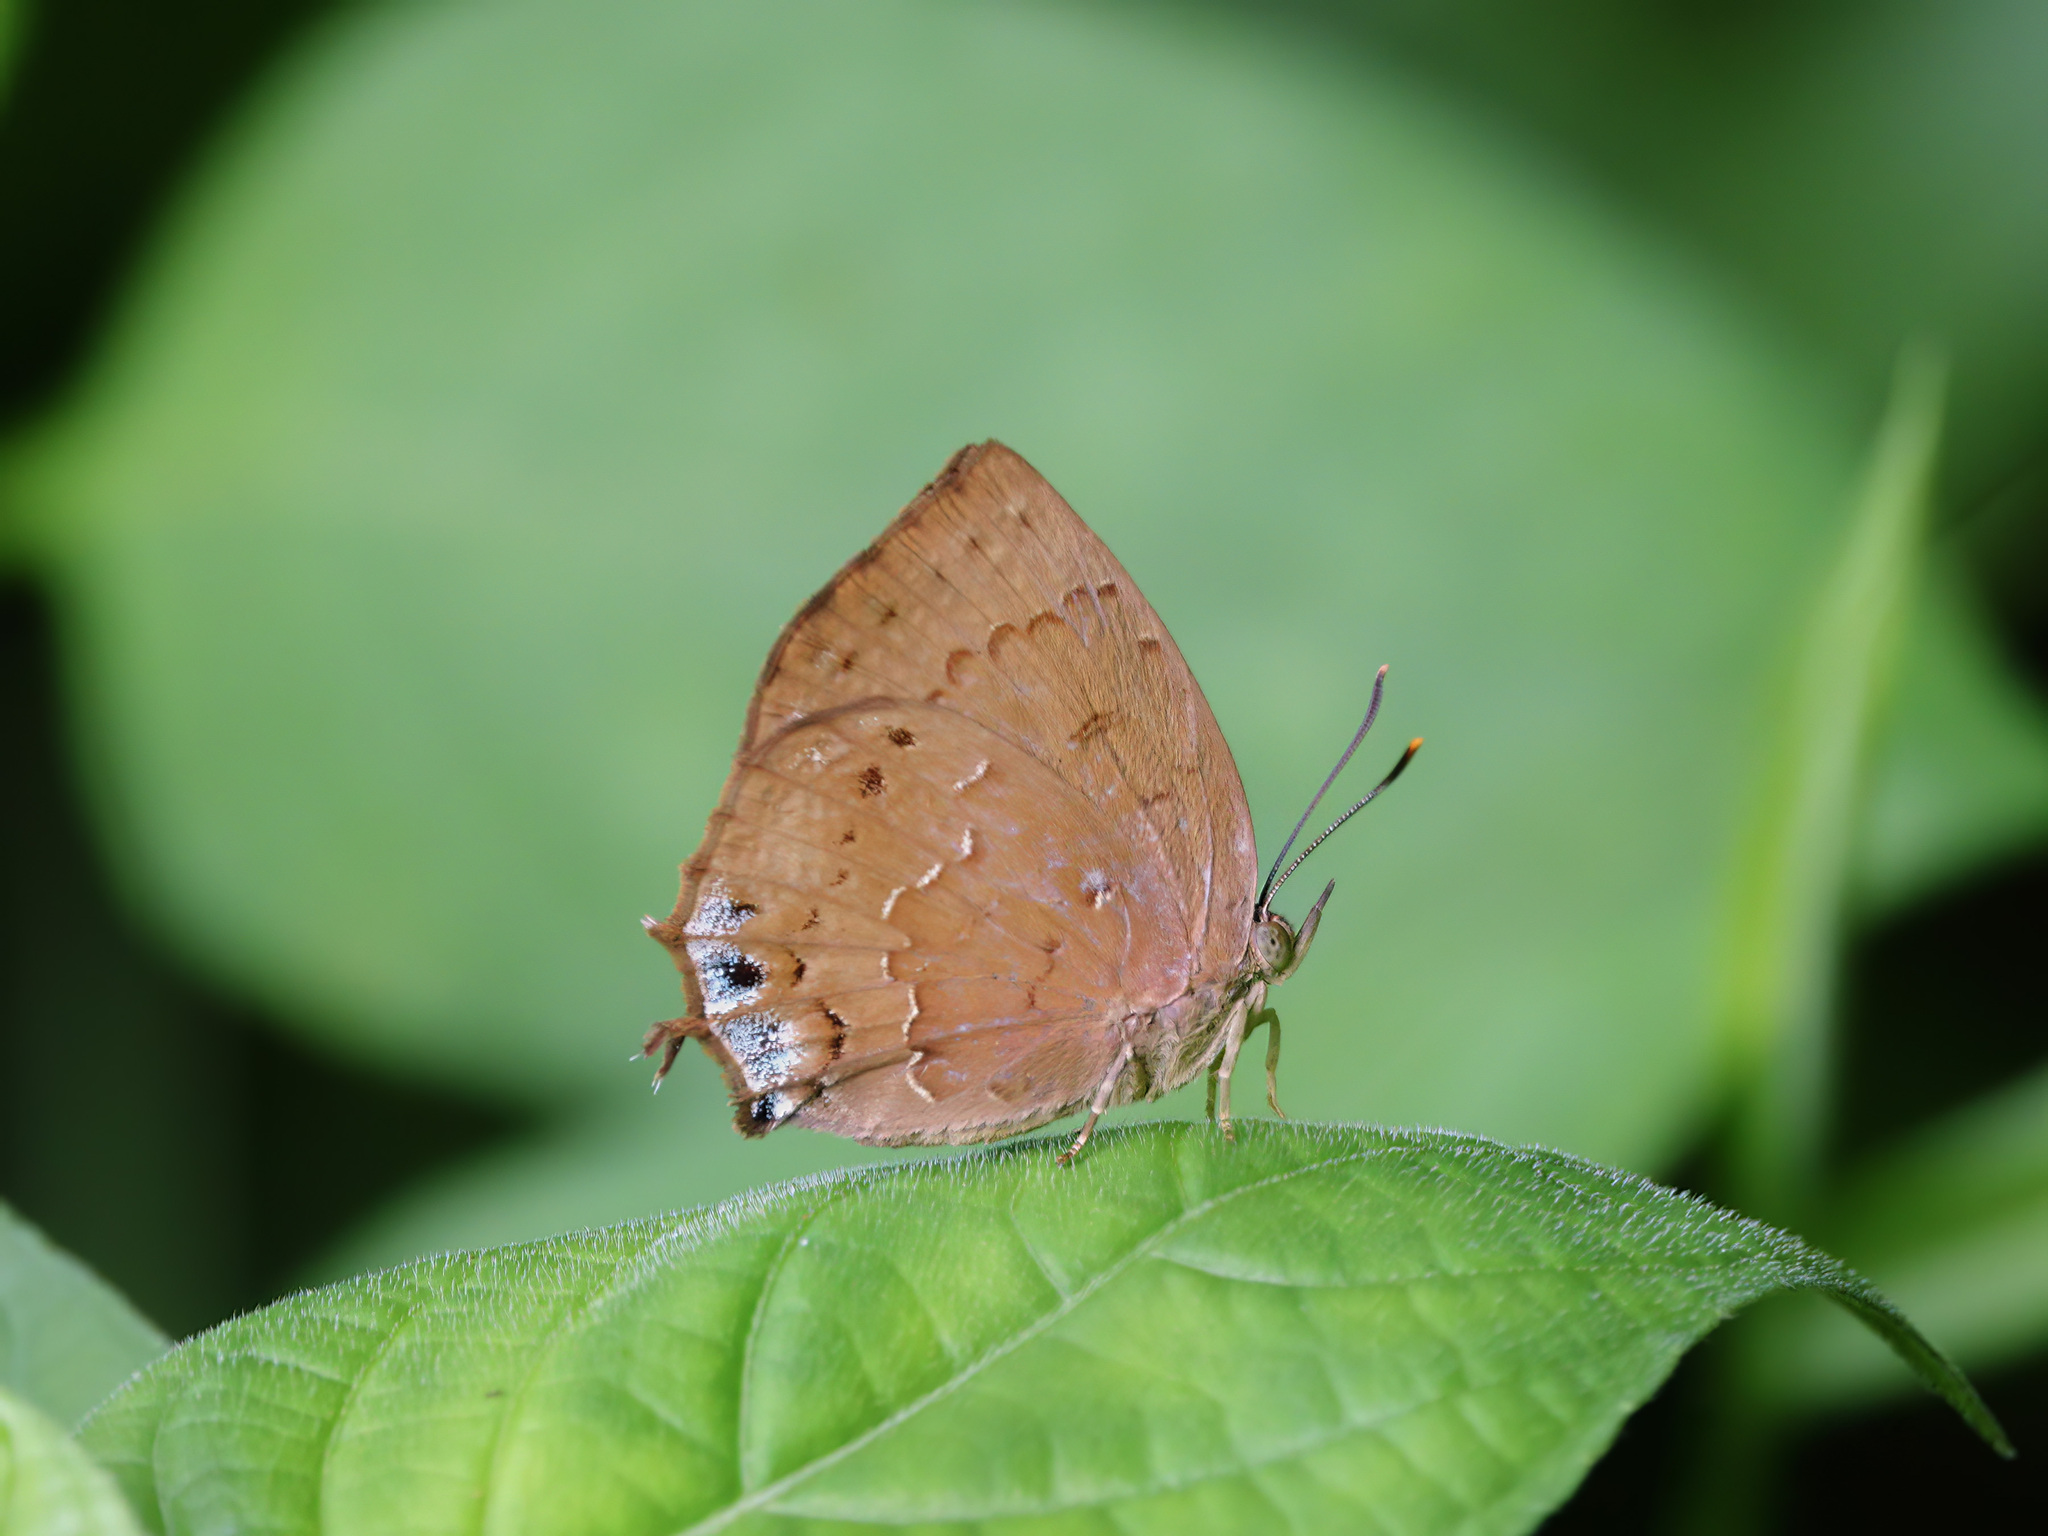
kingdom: Animalia
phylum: Arthropoda
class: Insecta
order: Lepidoptera
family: Lycaenidae
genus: Surendra
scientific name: Surendra vivarna
